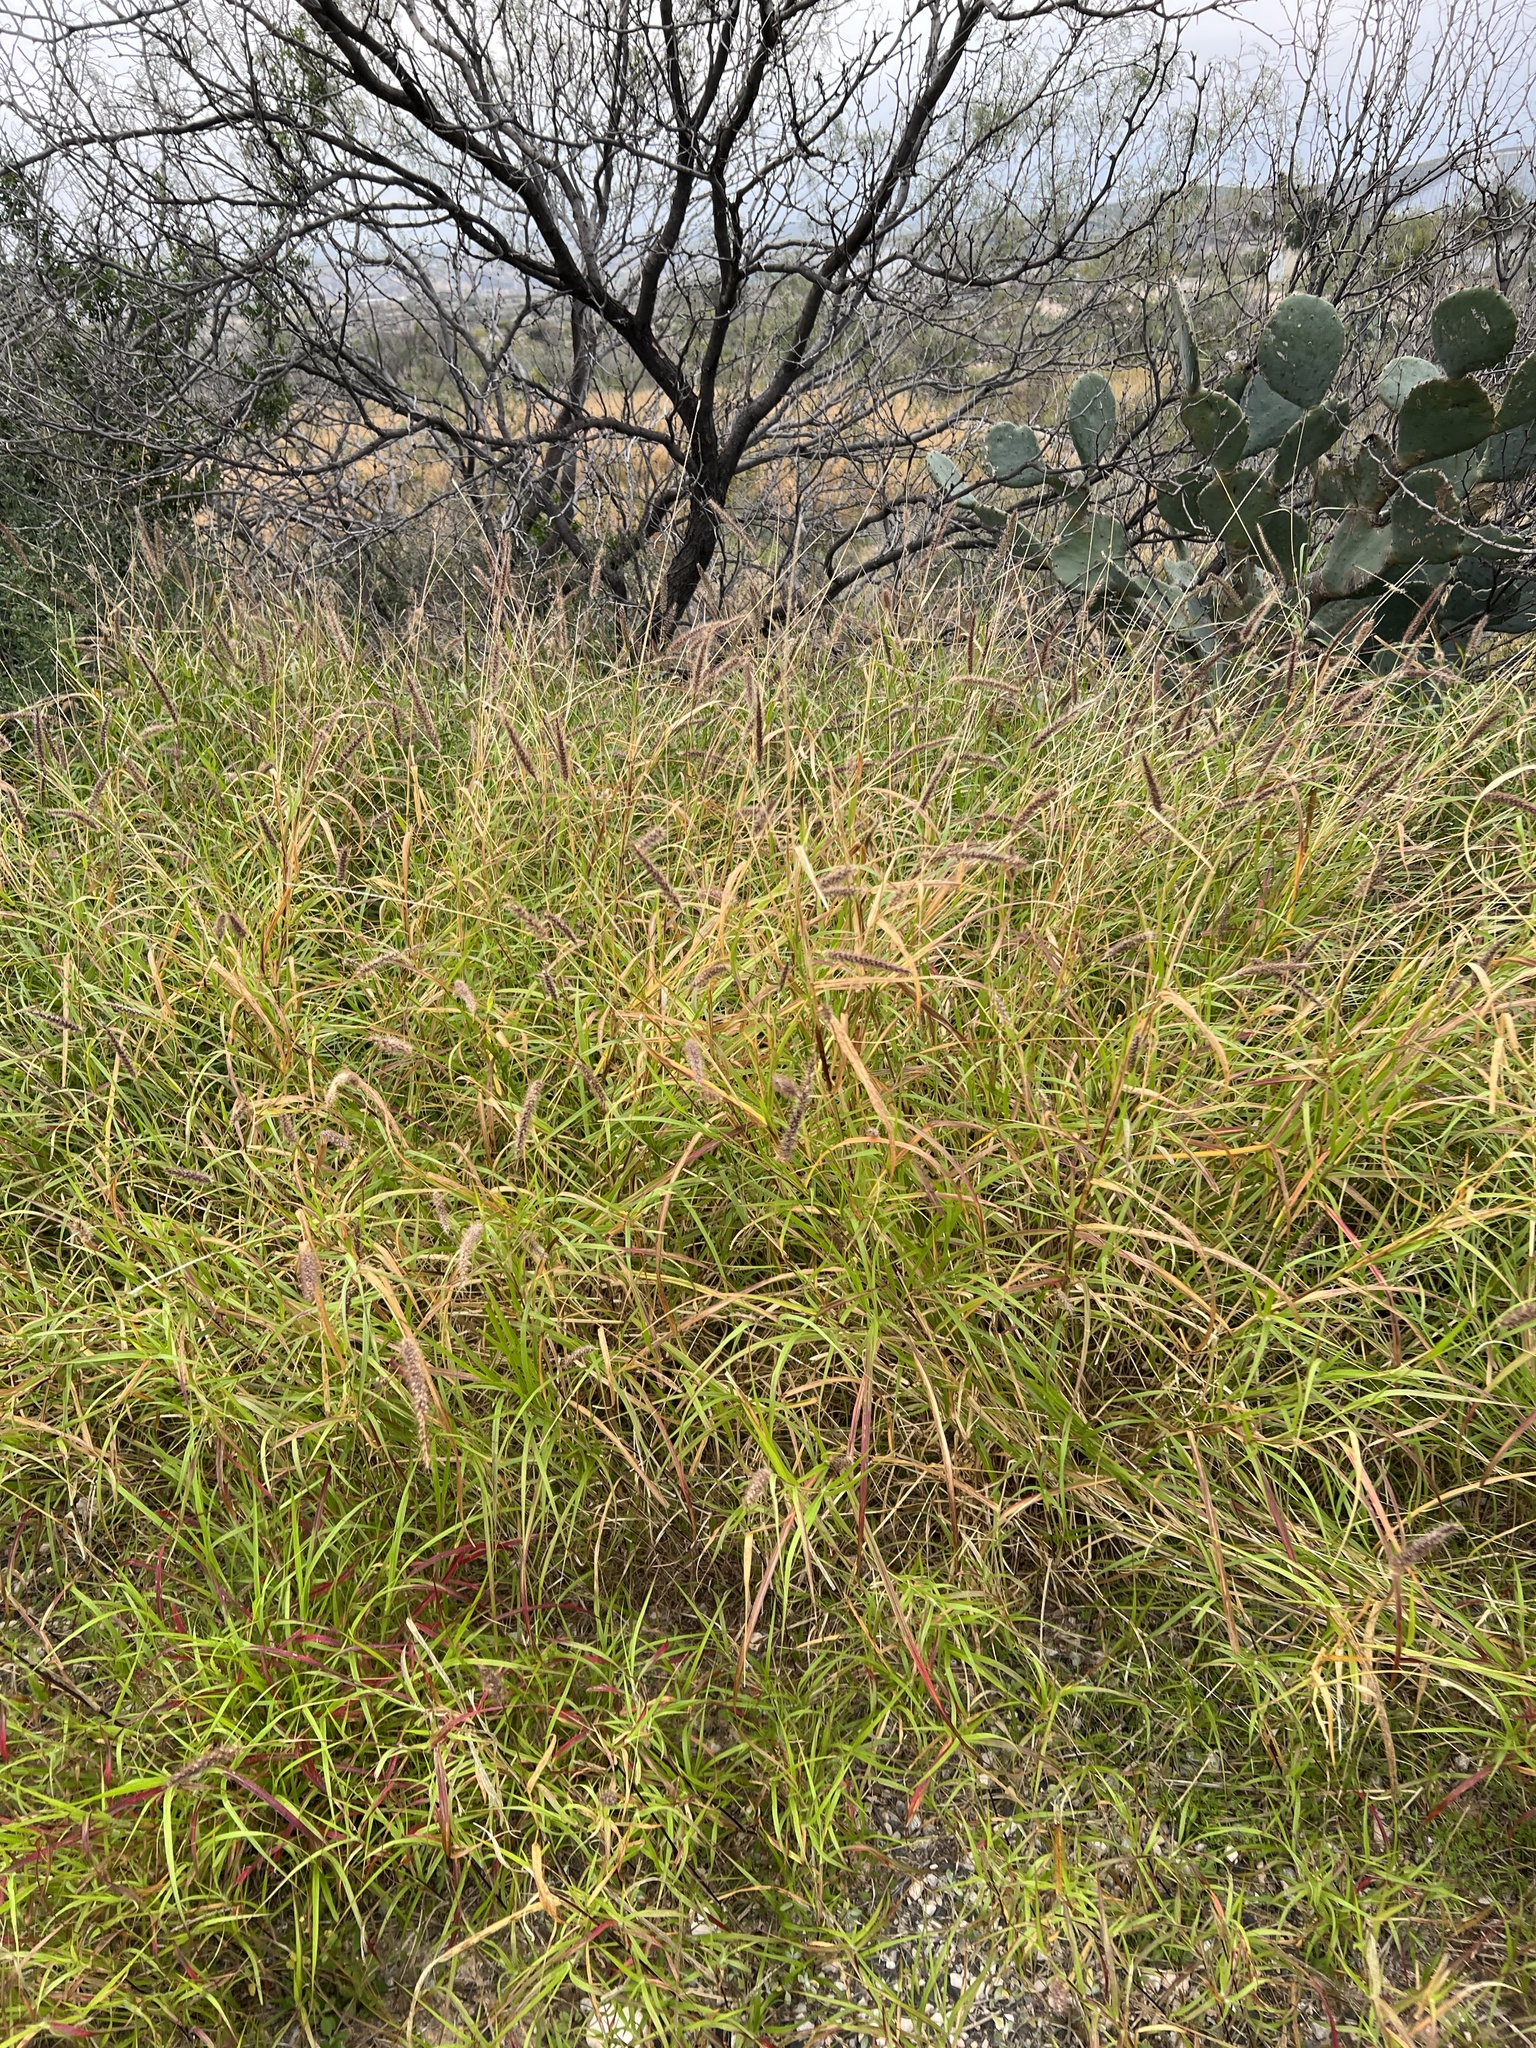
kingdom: Plantae
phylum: Tracheophyta
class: Liliopsida
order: Poales
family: Poaceae
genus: Cenchrus
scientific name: Cenchrus ciliaris
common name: Buffelgrass
